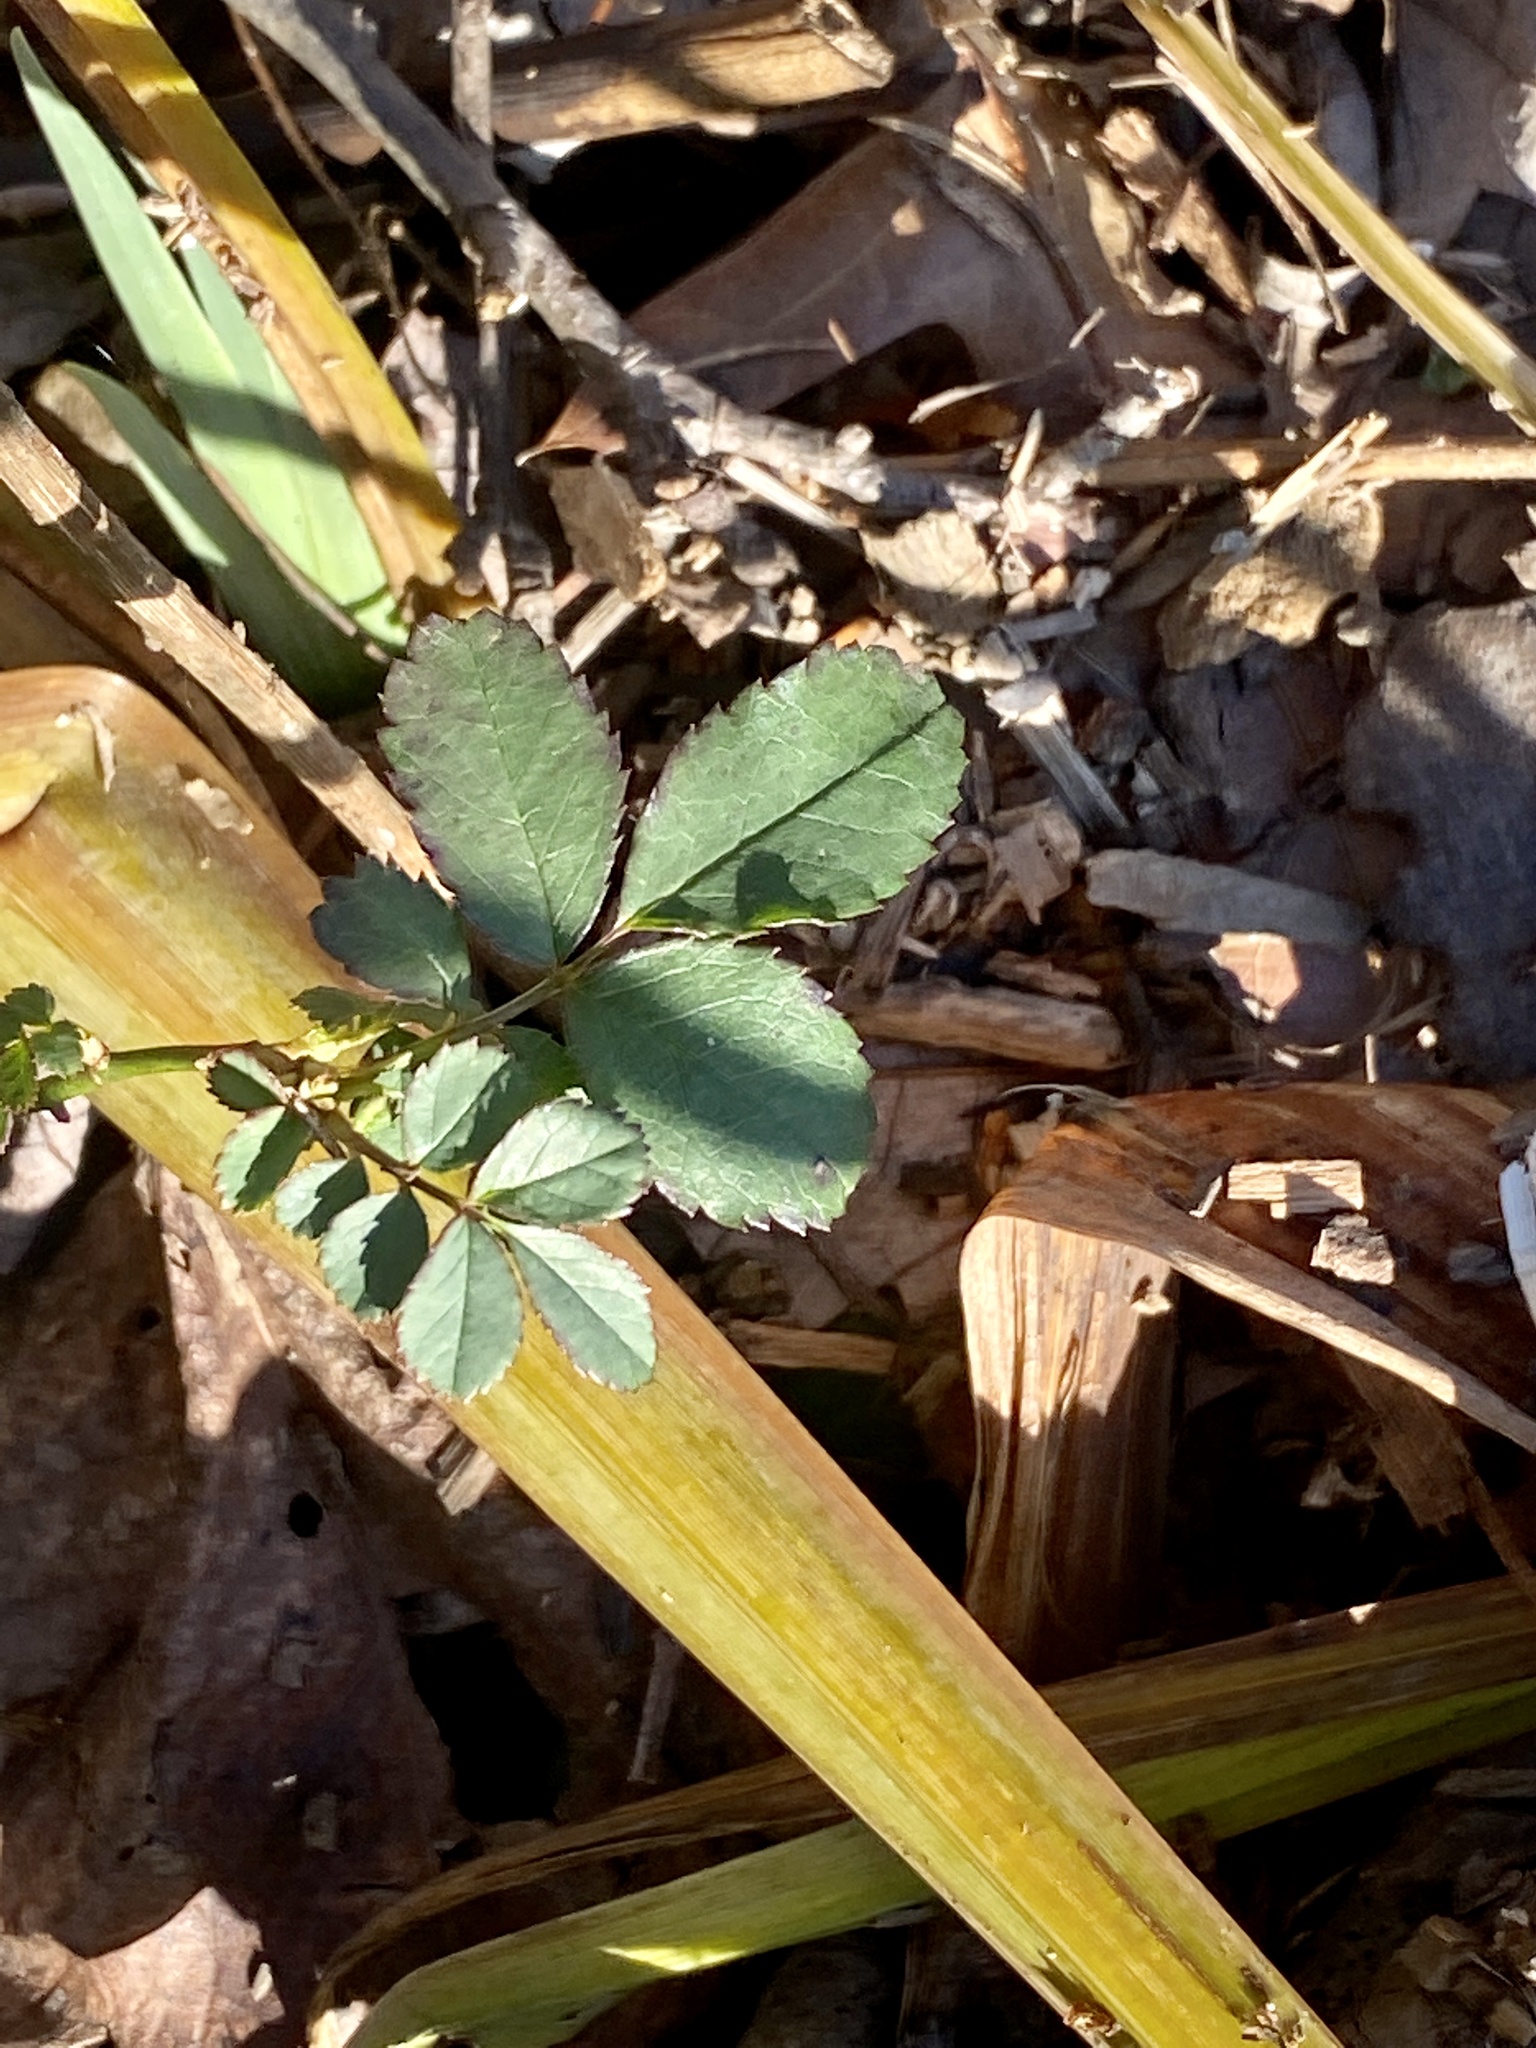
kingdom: Plantae
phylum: Tracheophyta
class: Magnoliopsida
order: Rosales
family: Rosaceae
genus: Rosa
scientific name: Rosa multiflora
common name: Multiflora rose
